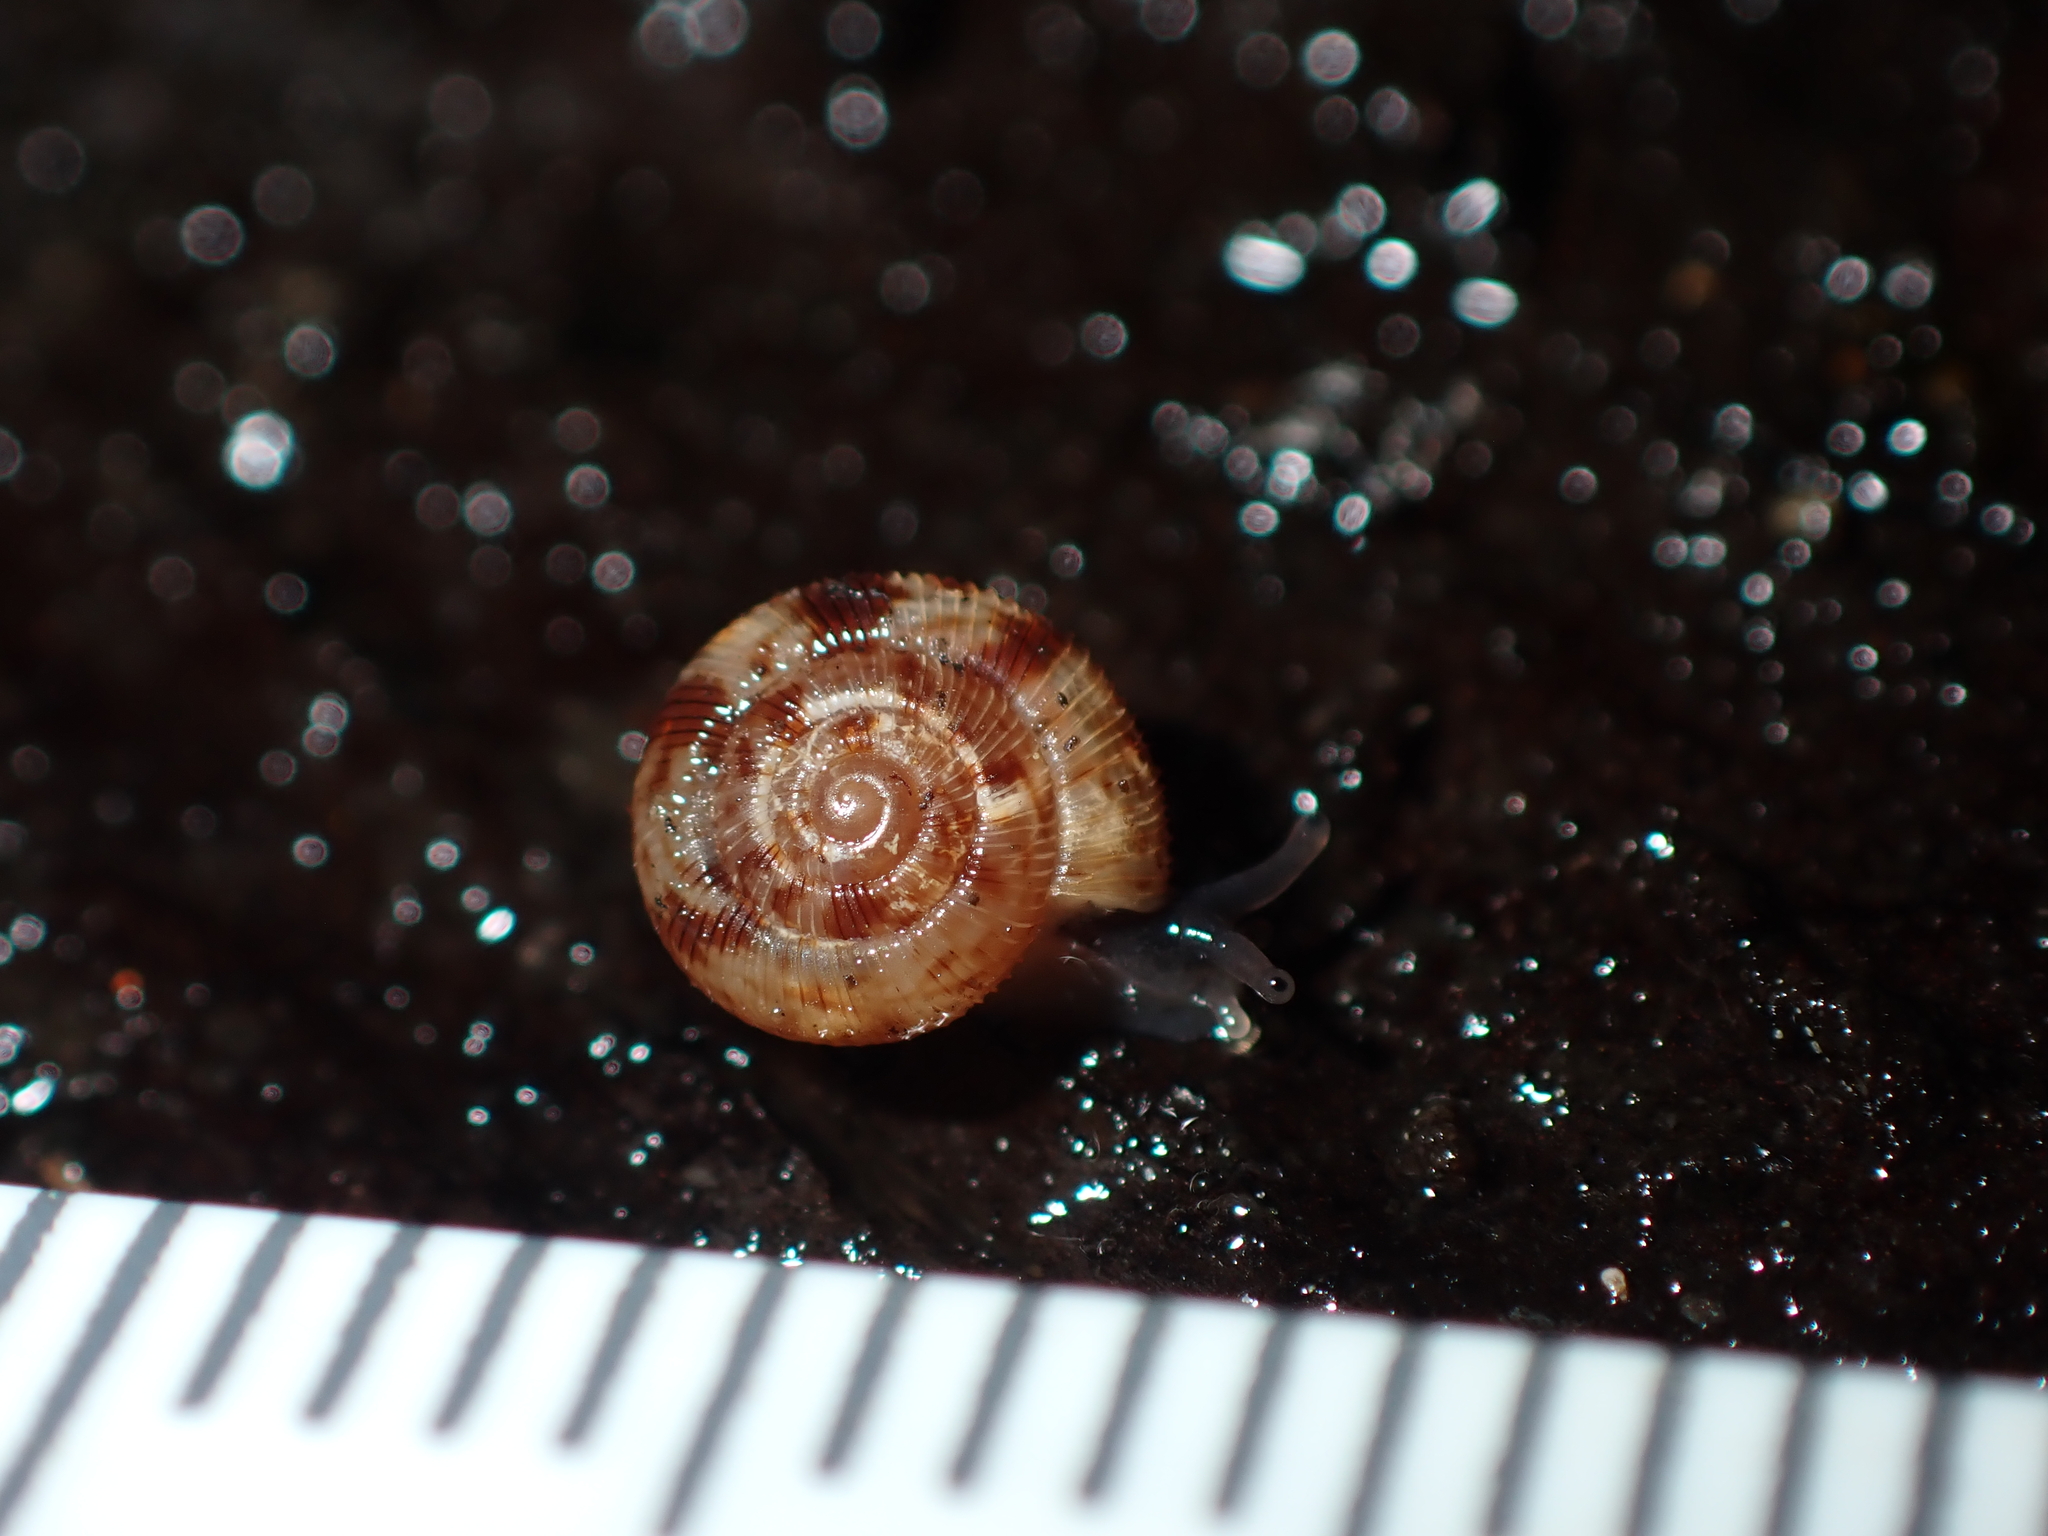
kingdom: Animalia
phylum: Mollusca
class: Gastropoda
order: Stylommatophora
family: Charopidae
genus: Phenacohelix
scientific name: Phenacohelix ponsonbyi
